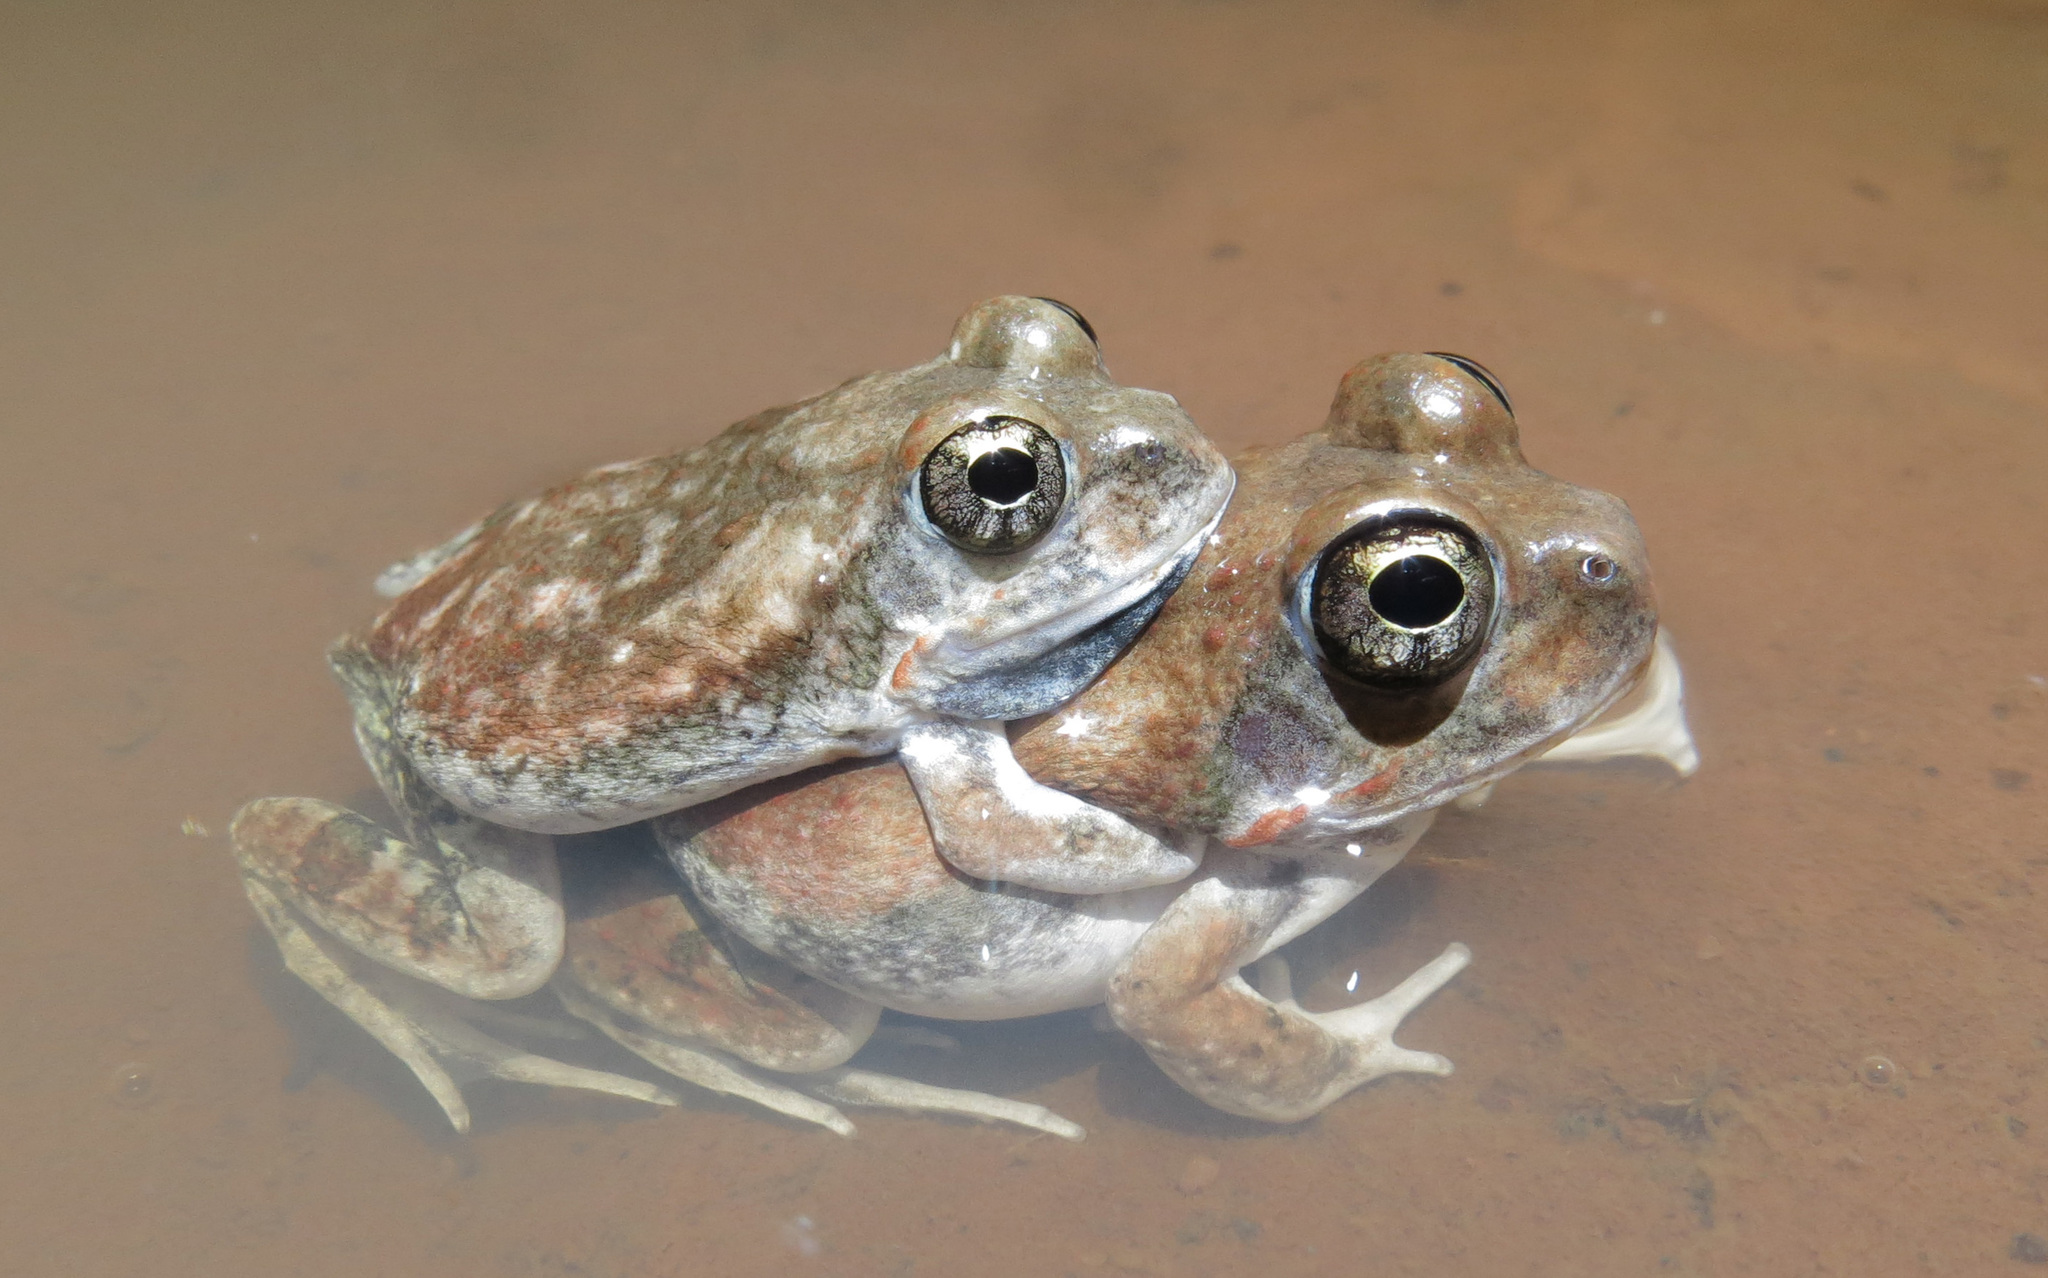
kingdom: Animalia
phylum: Chordata
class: Amphibia
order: Anura
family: Pyxicephalidae
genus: Tomopterna
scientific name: Tomopterna marmorata
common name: Russet-backed sand frog
